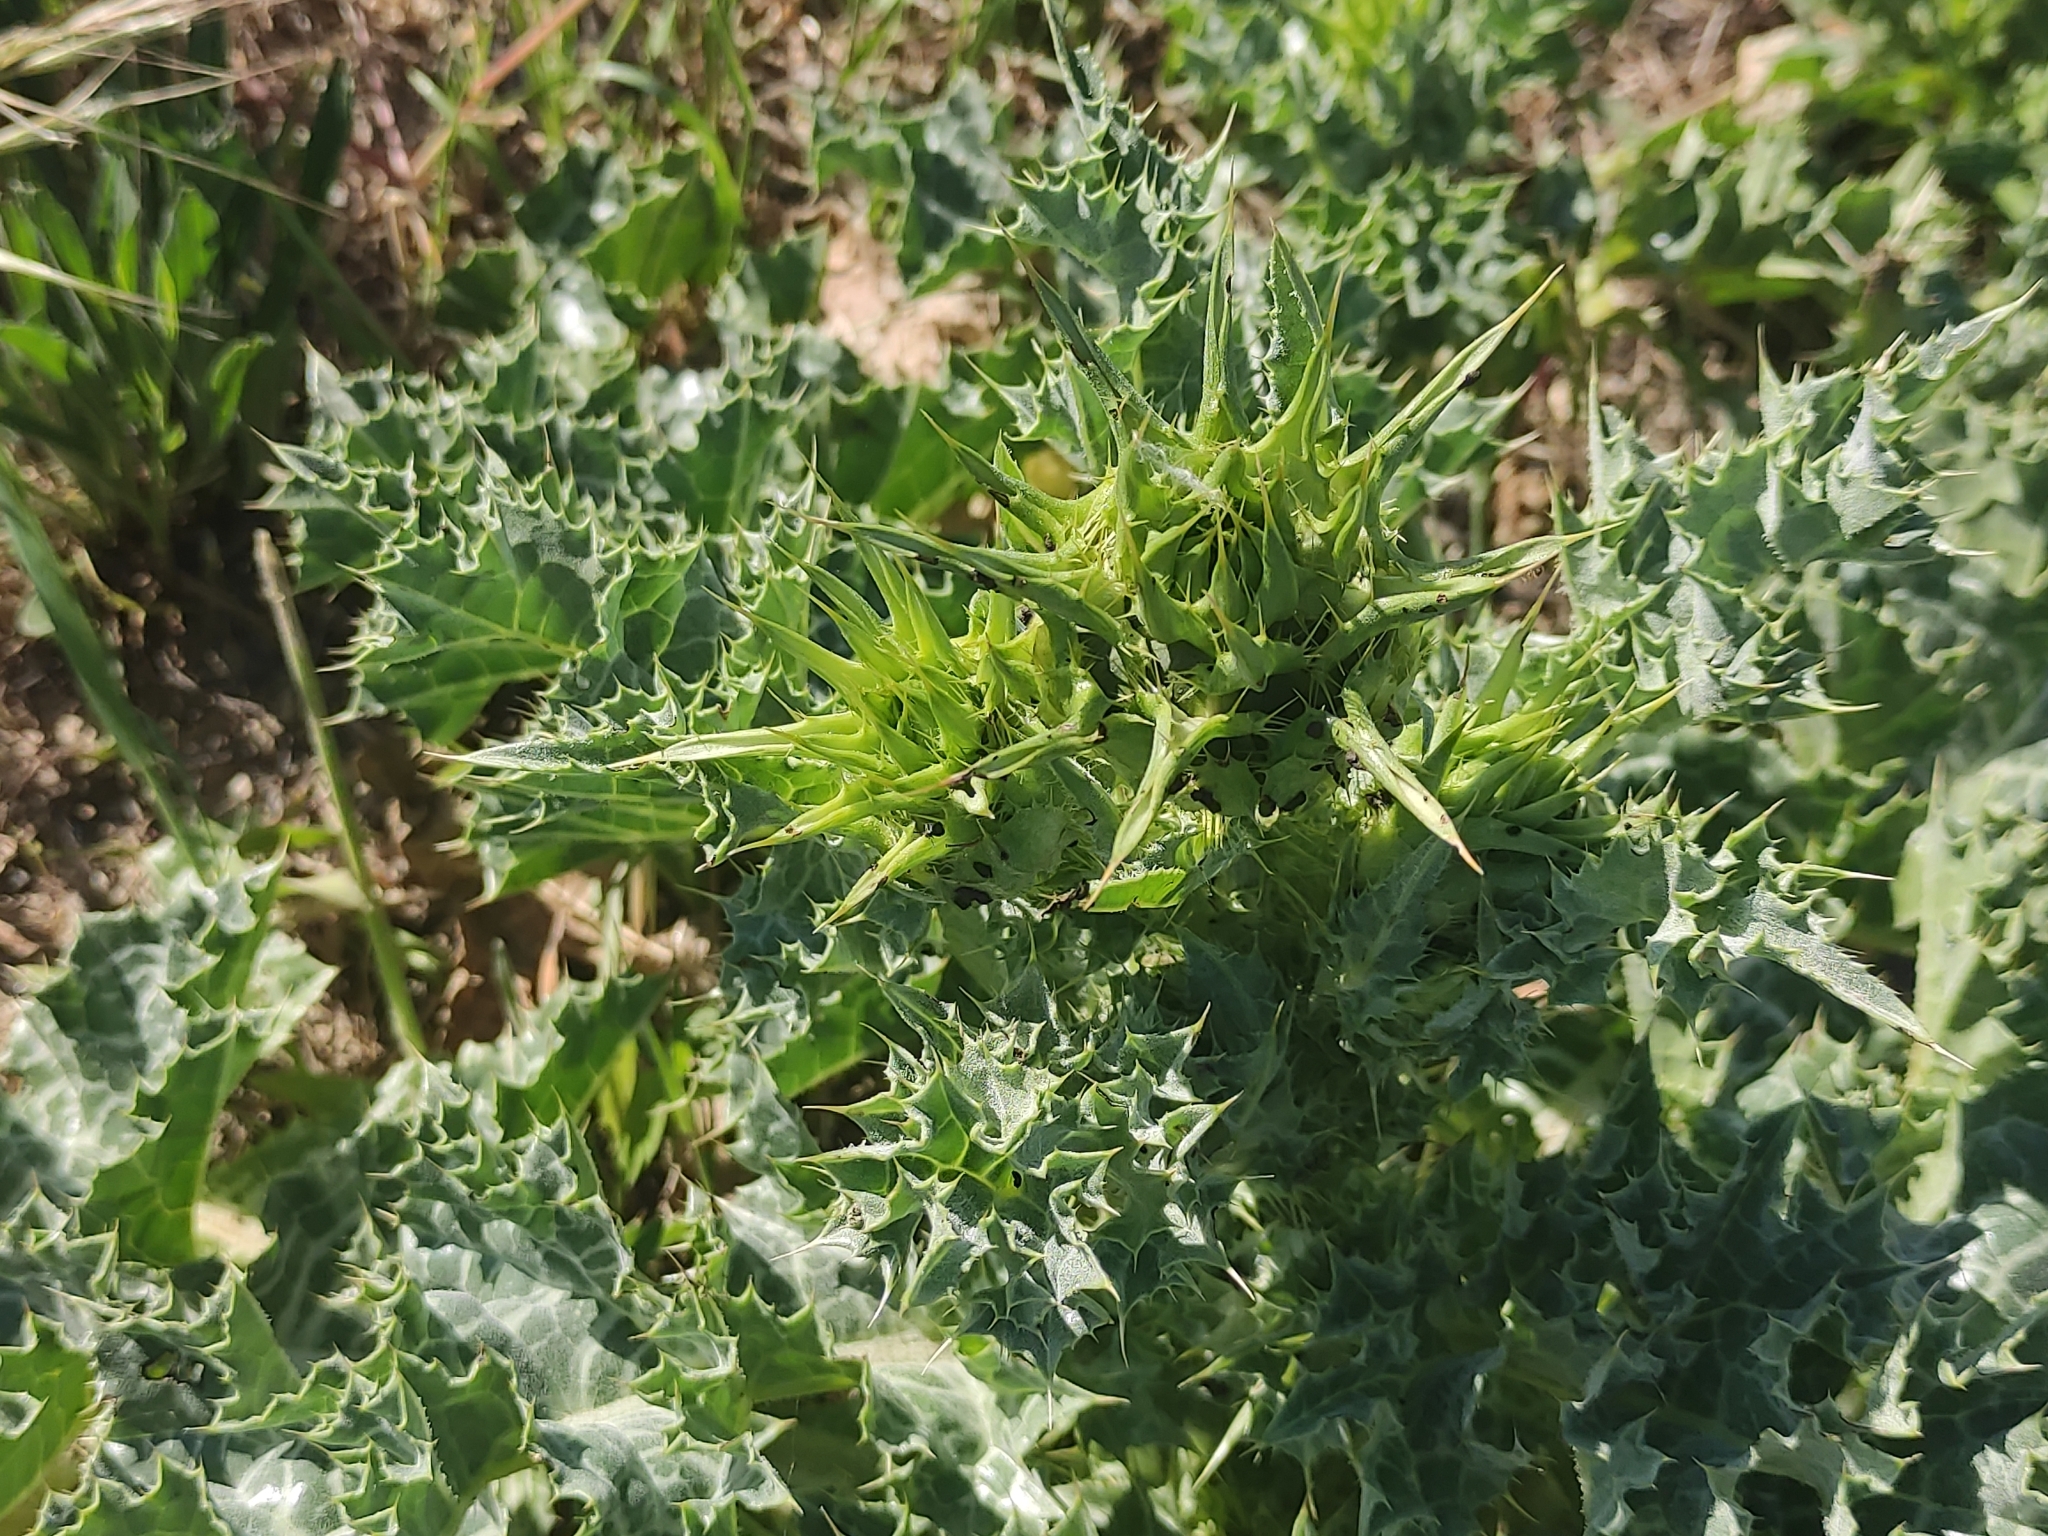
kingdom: Plantae
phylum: Tracheophyta
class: Magnoliopsida
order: Asterales
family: Asteraceae
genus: Silybum
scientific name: Silybum marianum
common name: Milk thistle
